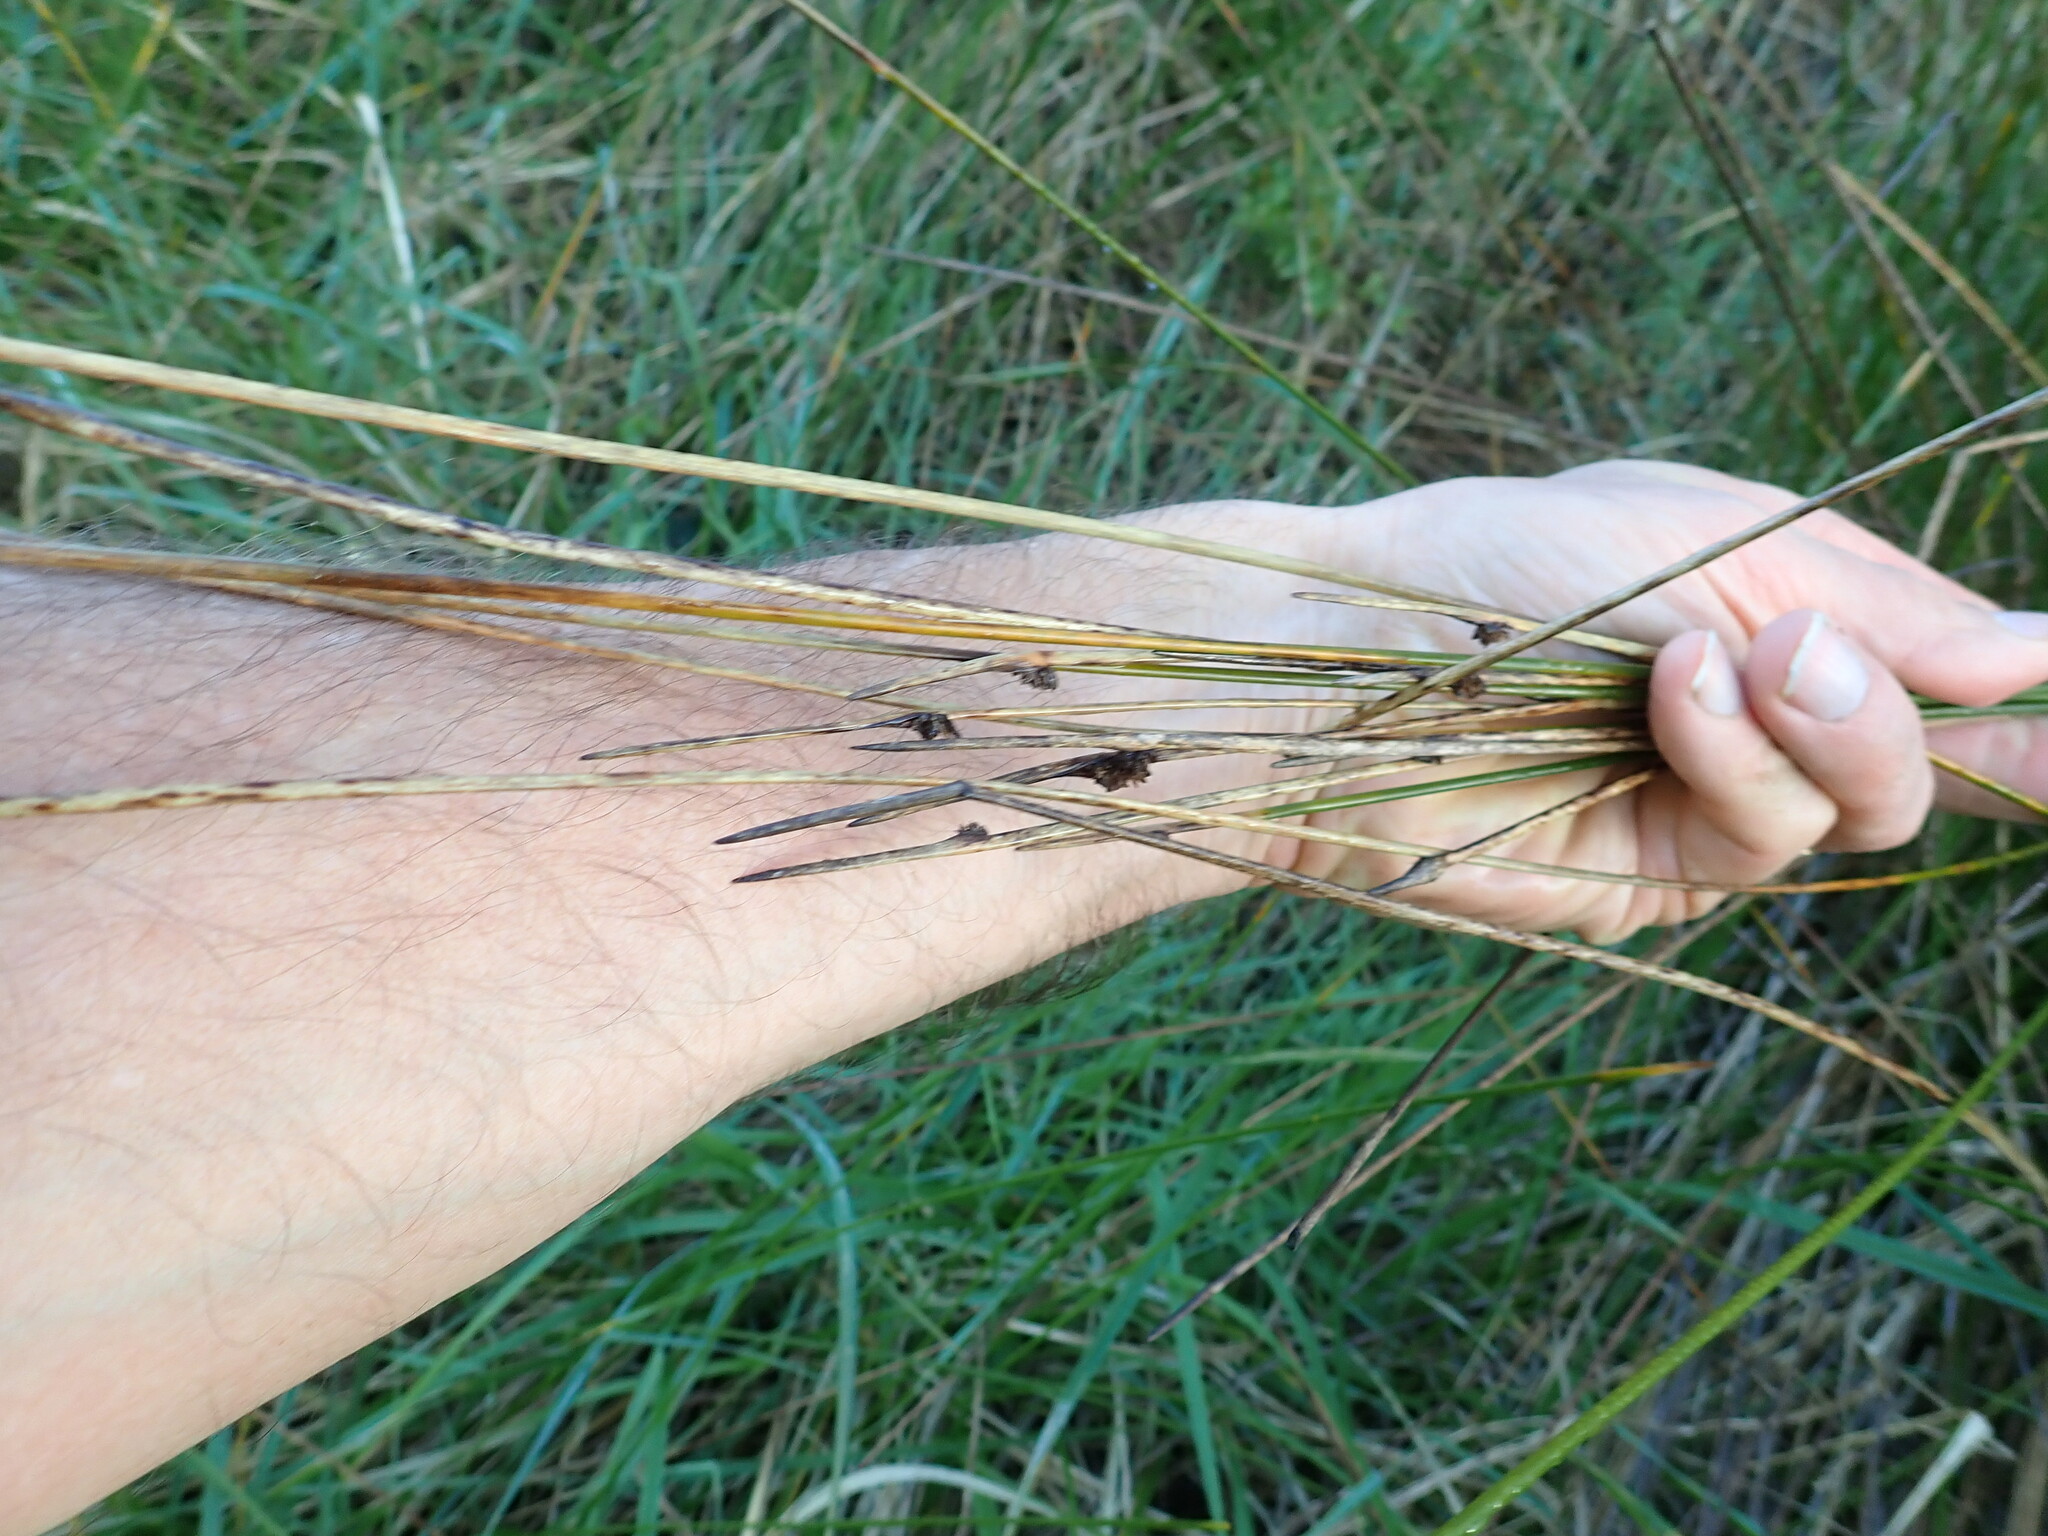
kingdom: Plantae
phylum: Tracheophyta
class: Liliopsida
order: Poales
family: Cyperaceae
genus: Ficinia
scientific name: Ficinia nodosa
